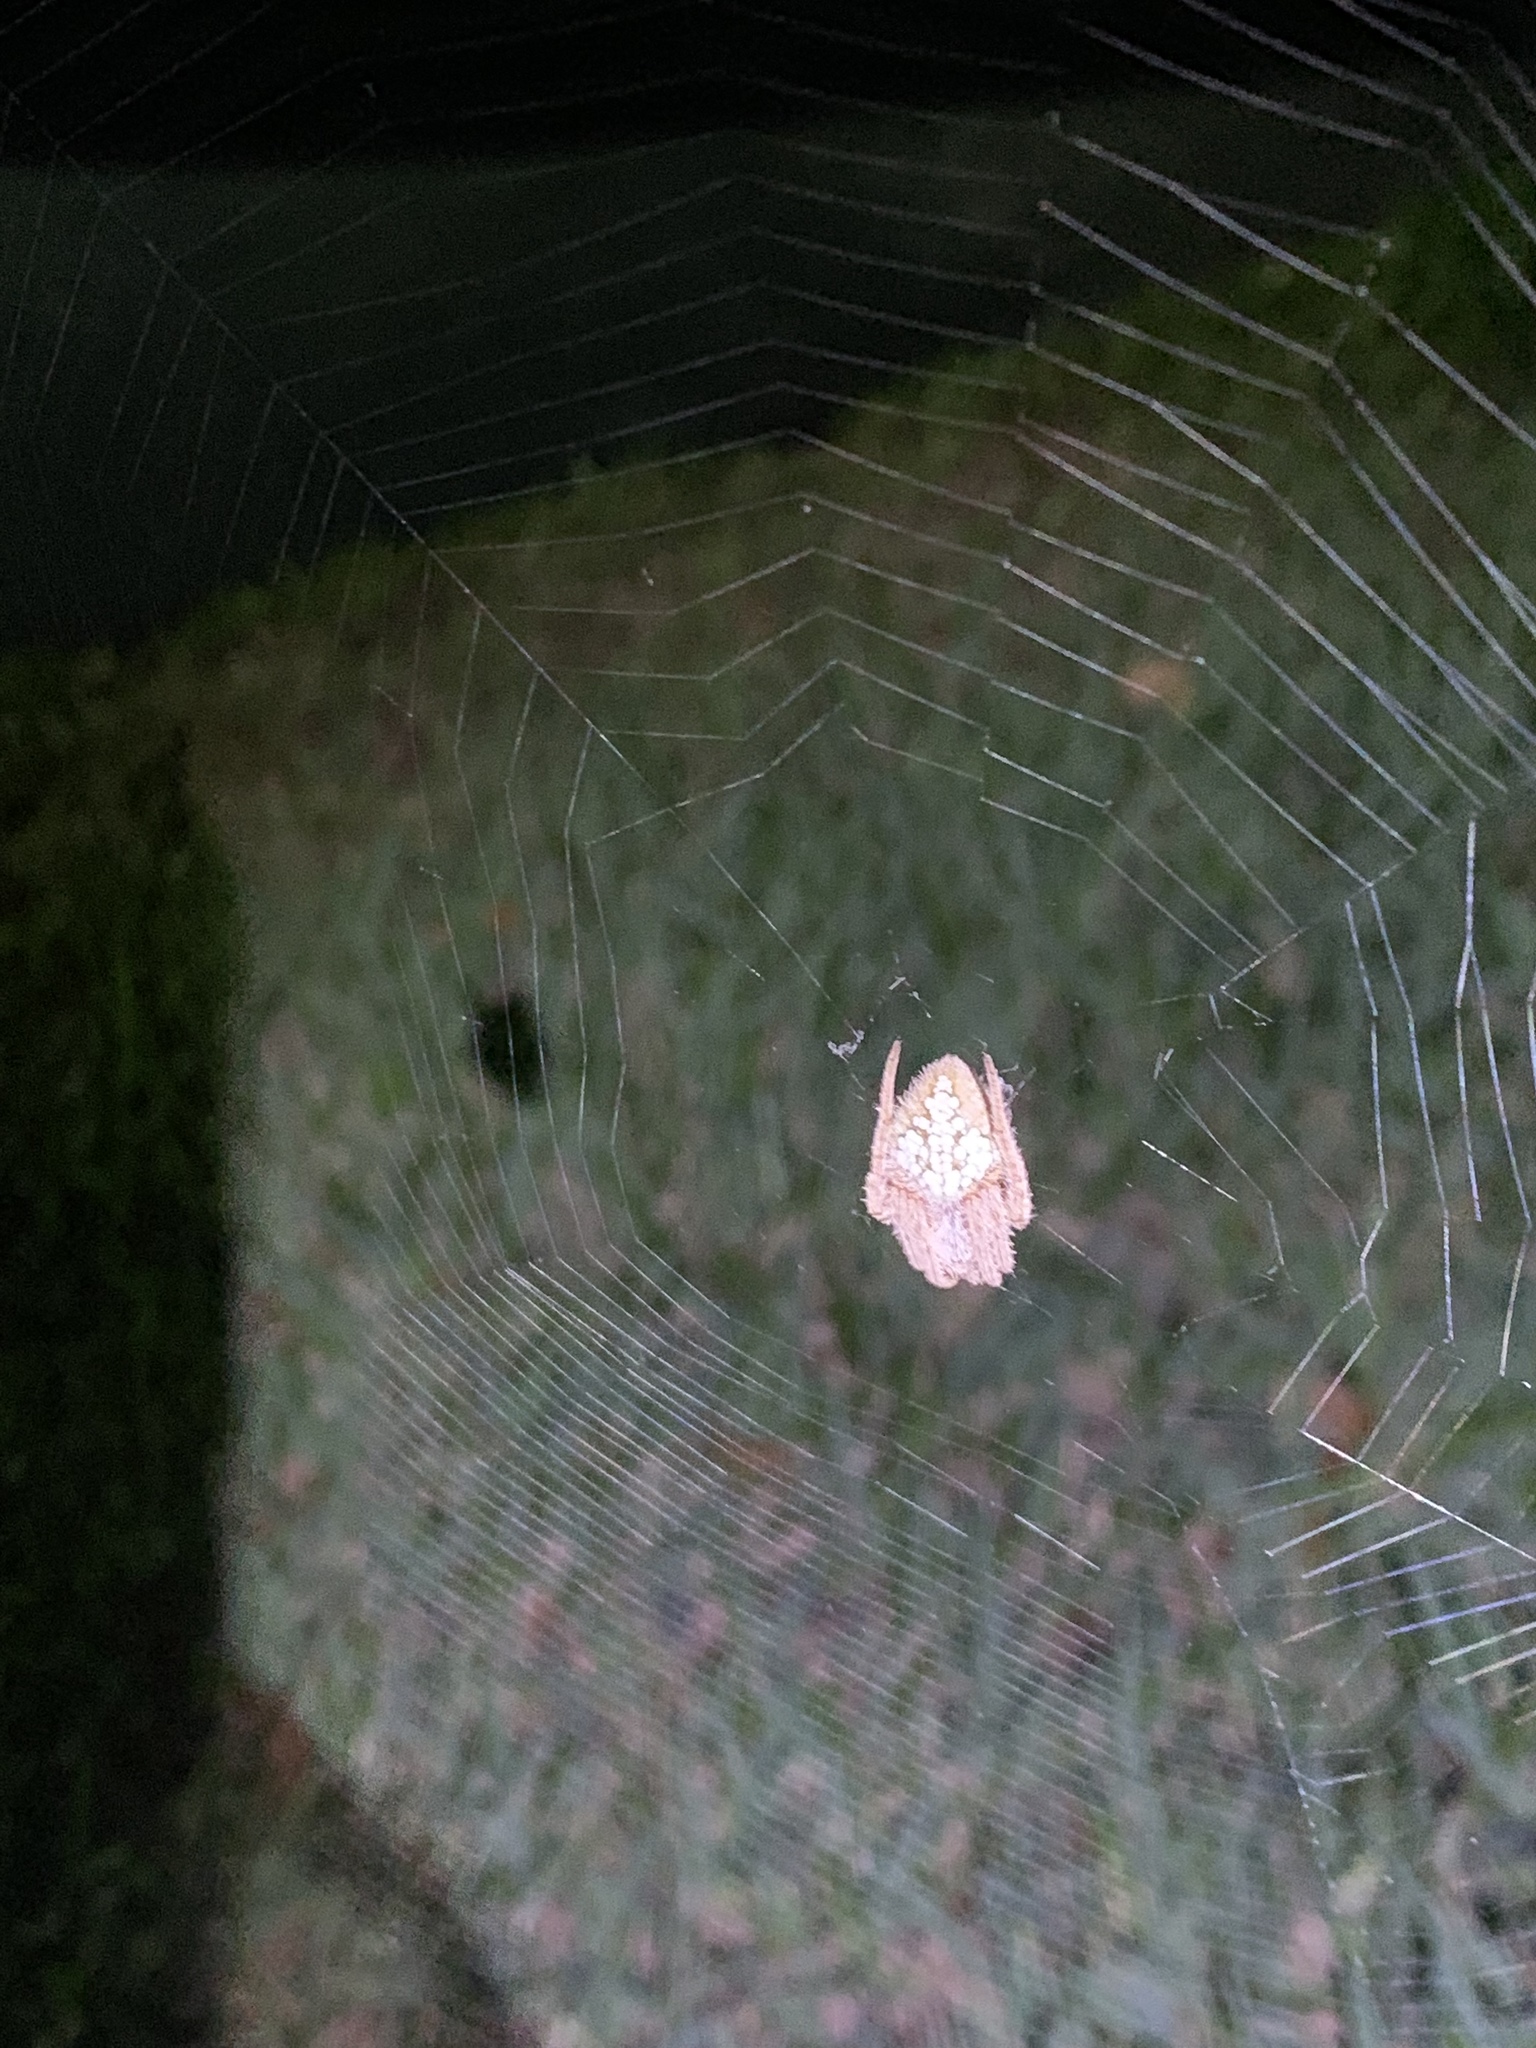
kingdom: Animalia
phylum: Arthropoda
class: Arachnida
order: Araneae
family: Araneidae
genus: Eriophora
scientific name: Eriophora ravilla
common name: Orb weavers
